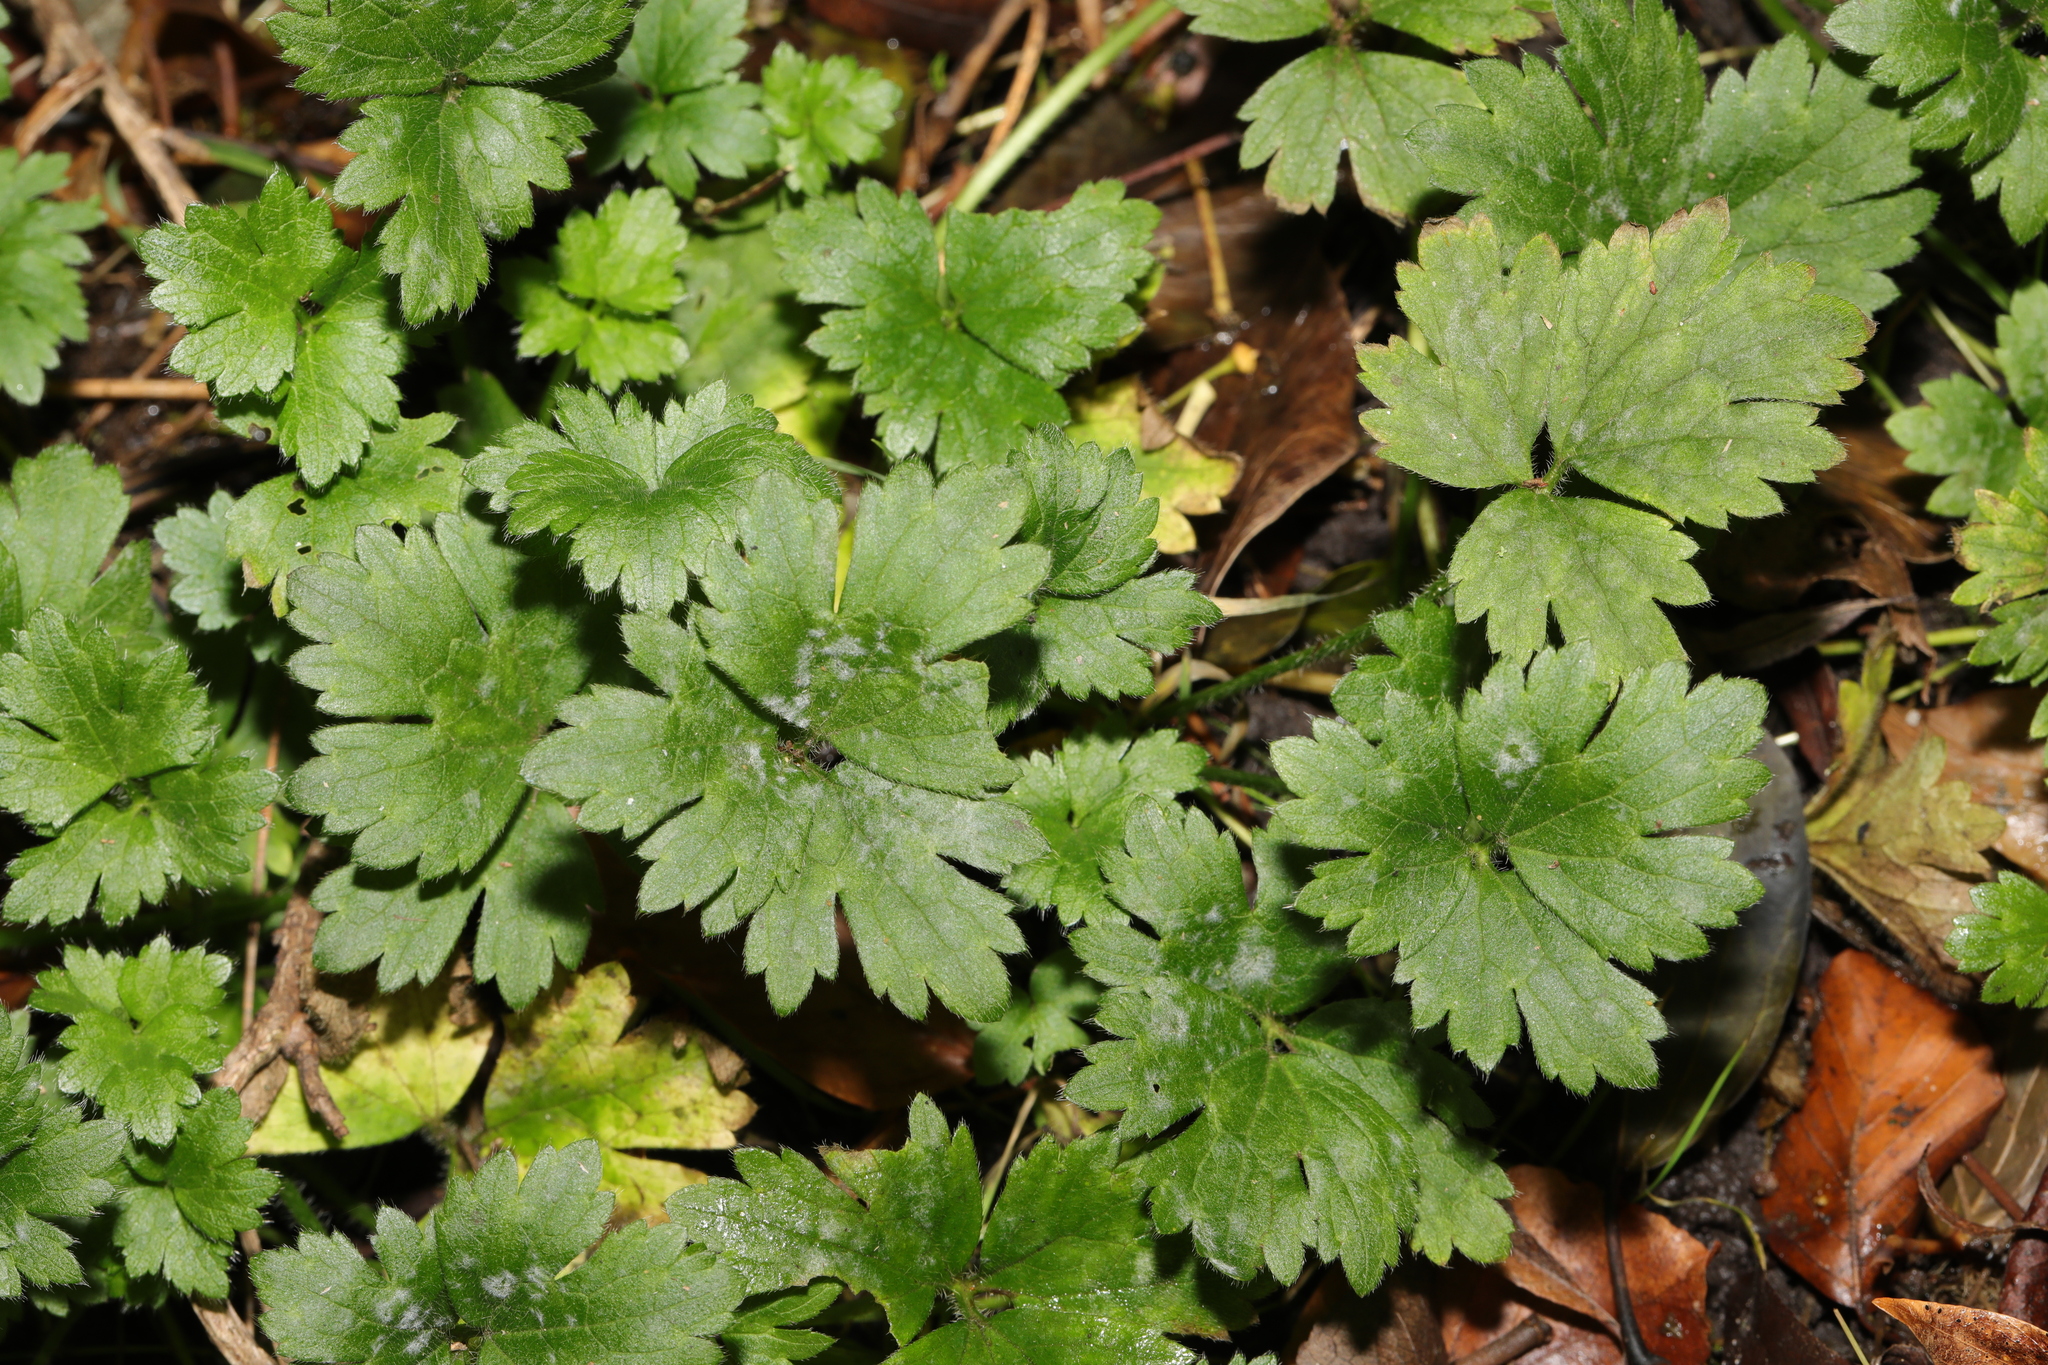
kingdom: Plantae
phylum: Tracheophyta
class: Magnoliopsida
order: Ranunculales
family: Ranunculaceae
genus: Ranunculus
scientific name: Ranunculus repens
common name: Creeping buttercup
